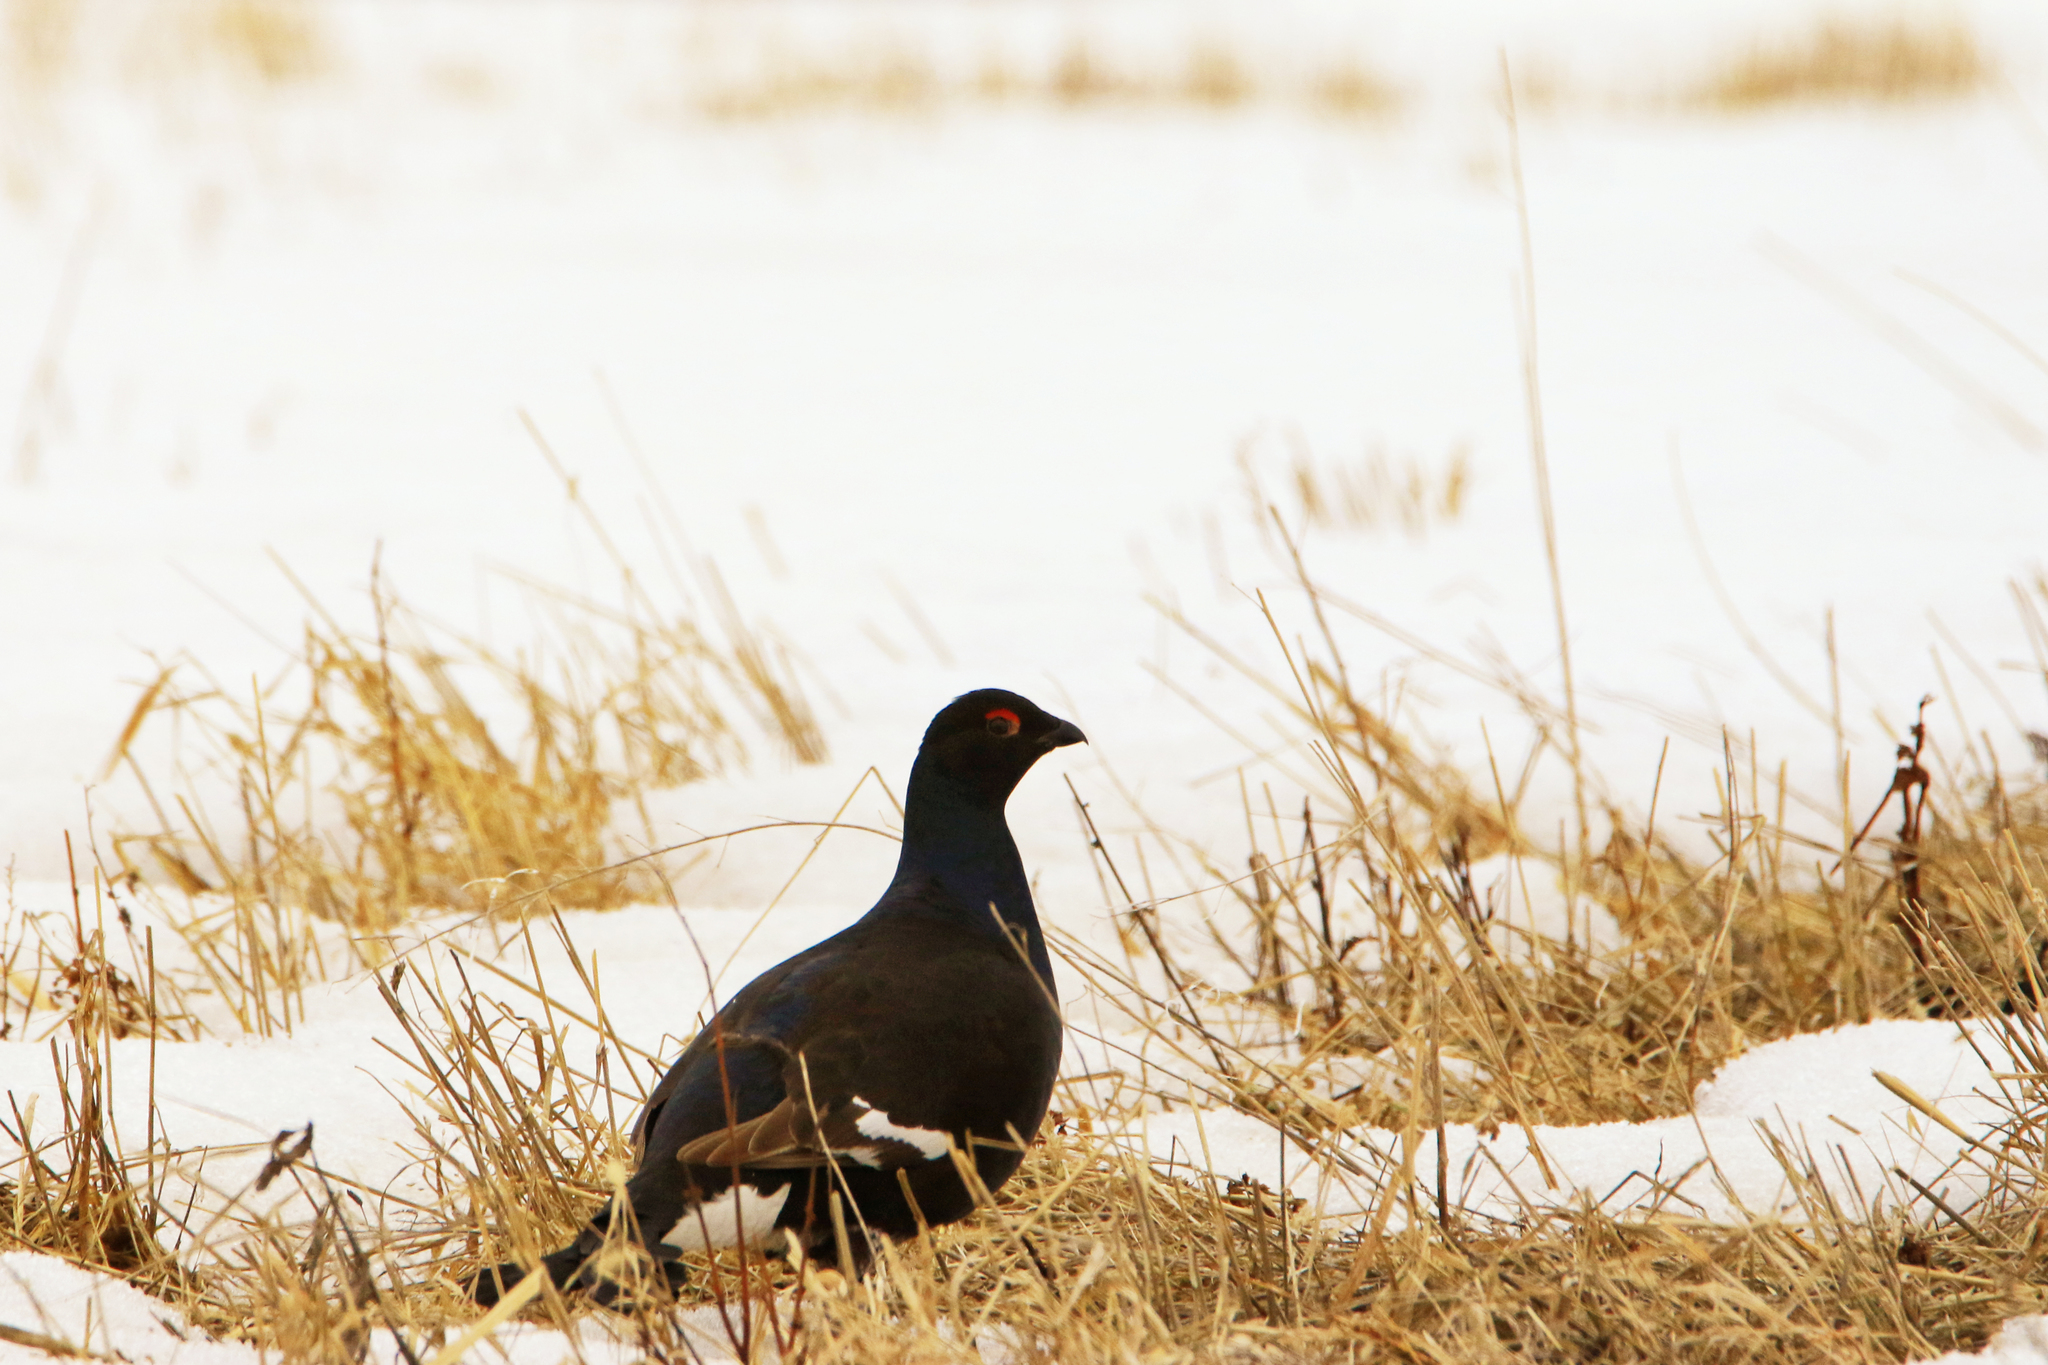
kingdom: Animalia
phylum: Chordata
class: Aves
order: Galliformes
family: Phasianidae
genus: Lyrurus
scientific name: Lyrurus tetrix
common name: Black grouse
